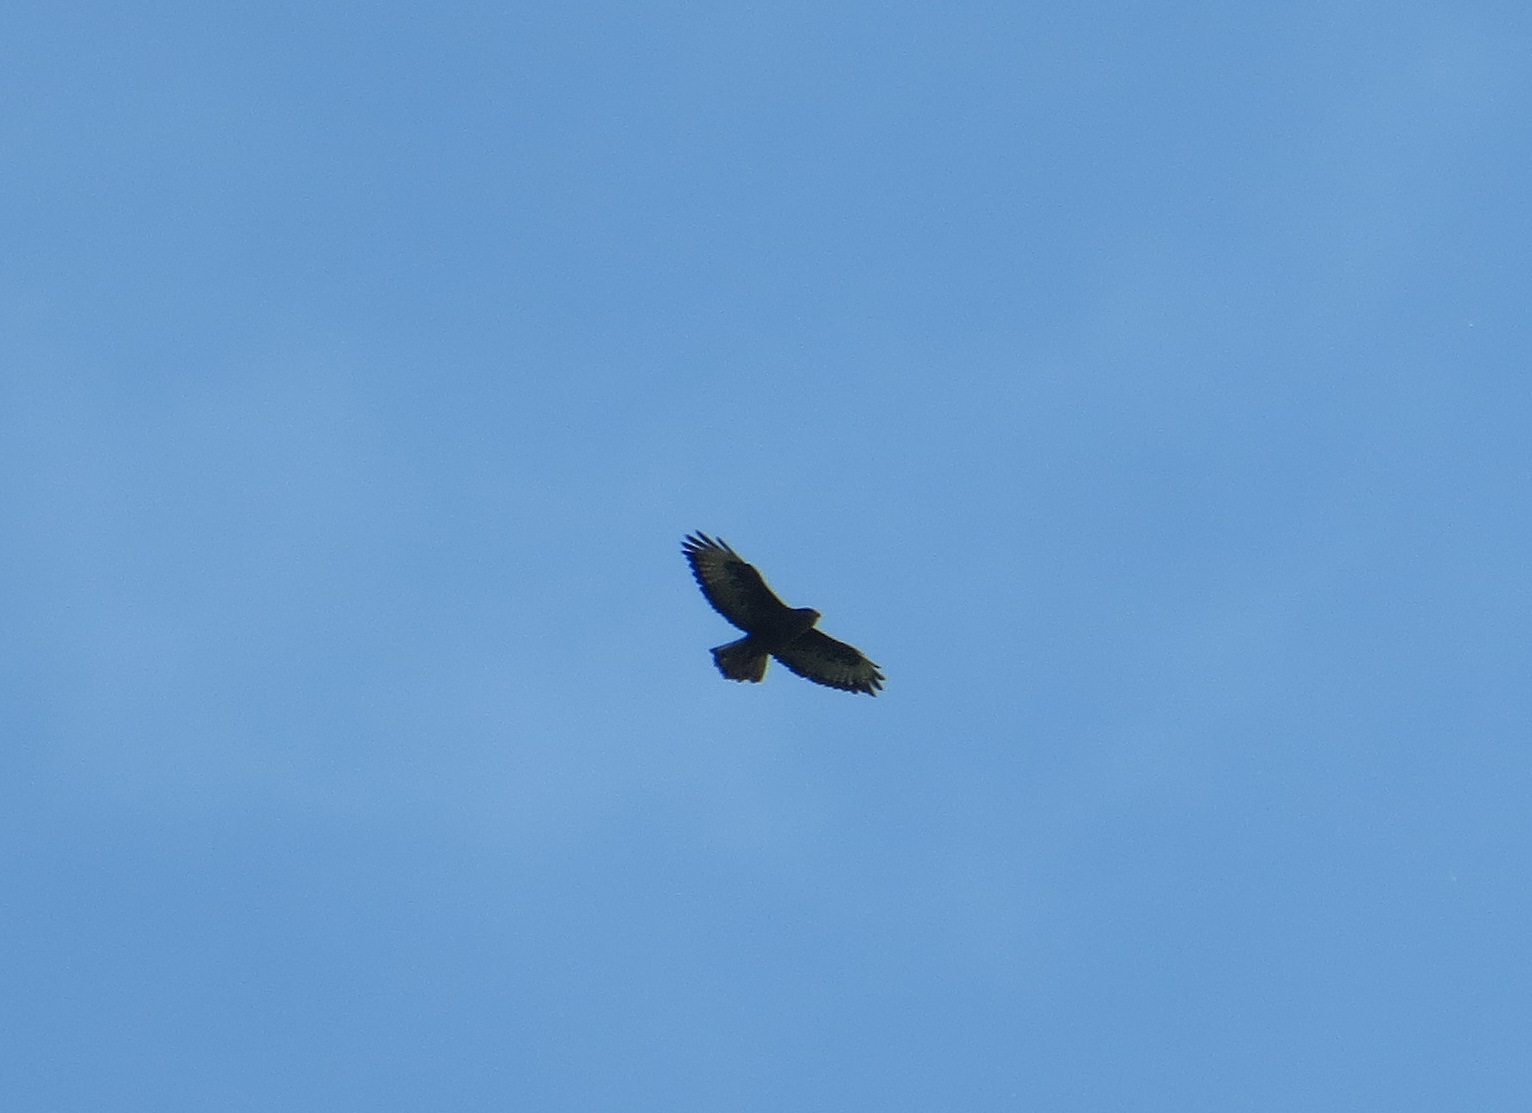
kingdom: Animalia
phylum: Chordata
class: Aves
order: Accipitriformes
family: Accipitridae
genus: Buteo
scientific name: Buteo buteo
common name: Common buzzard
